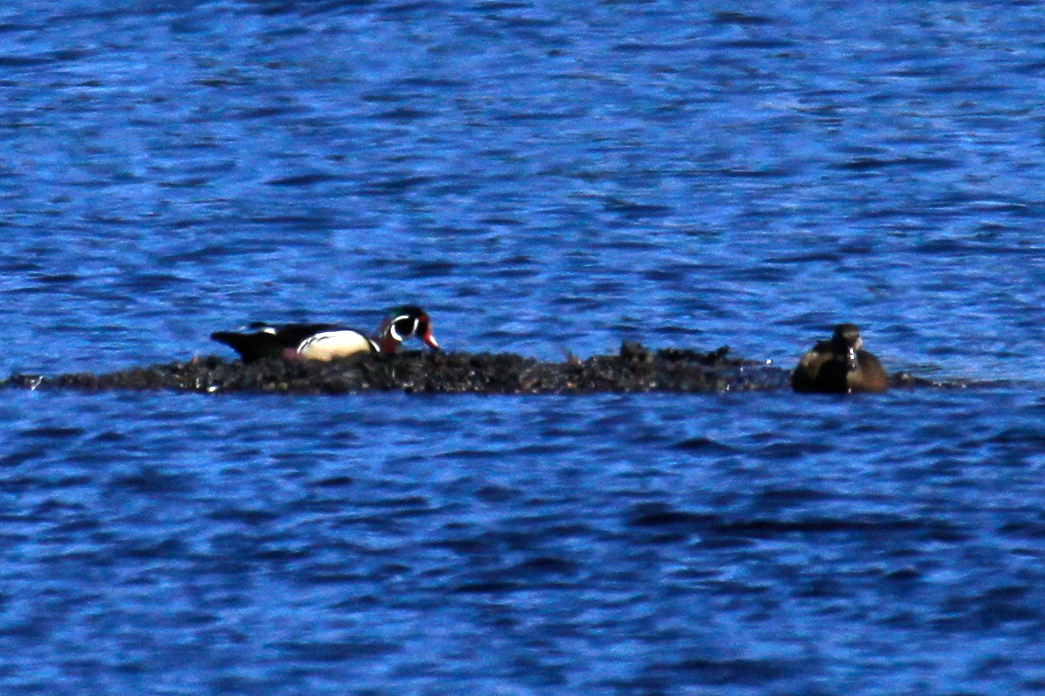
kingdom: Animalia
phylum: Chordata
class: Aves
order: Anseriformes
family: Anatidae
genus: Aix
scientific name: Aix sponsa
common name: Wood duck
